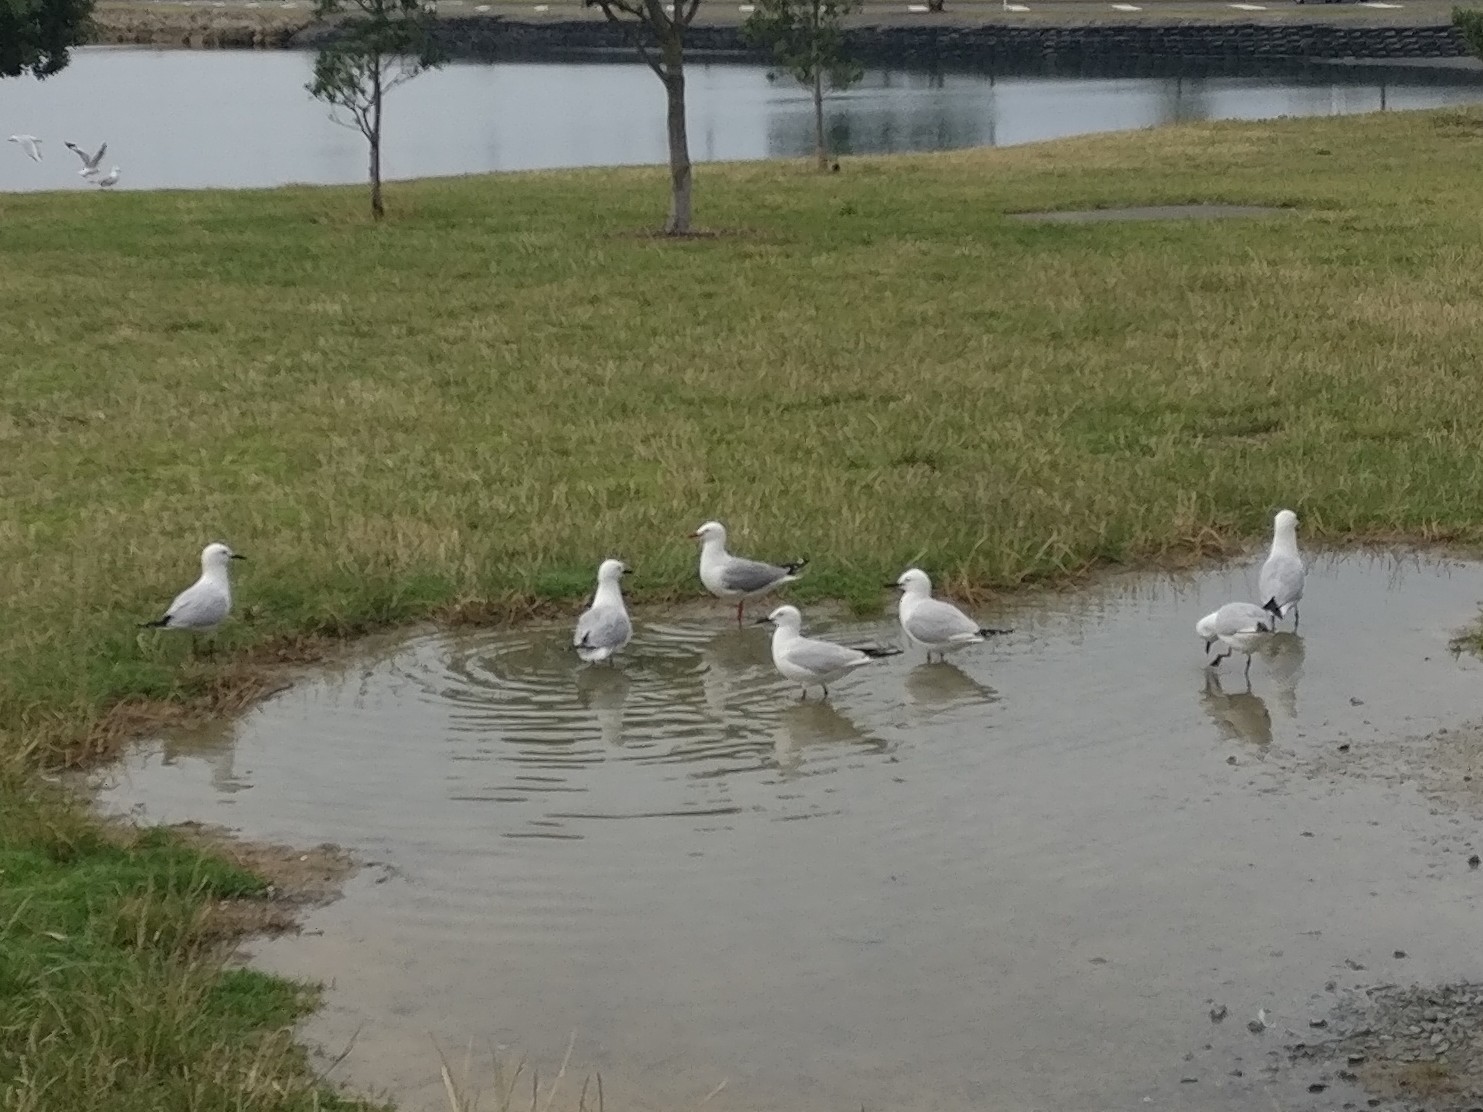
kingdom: Animalia
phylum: Chordata
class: Aves
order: Charadriiformes
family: Laridae
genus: Chroicocephalus
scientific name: Chroicocephalus bulleri
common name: Black-billed gull
